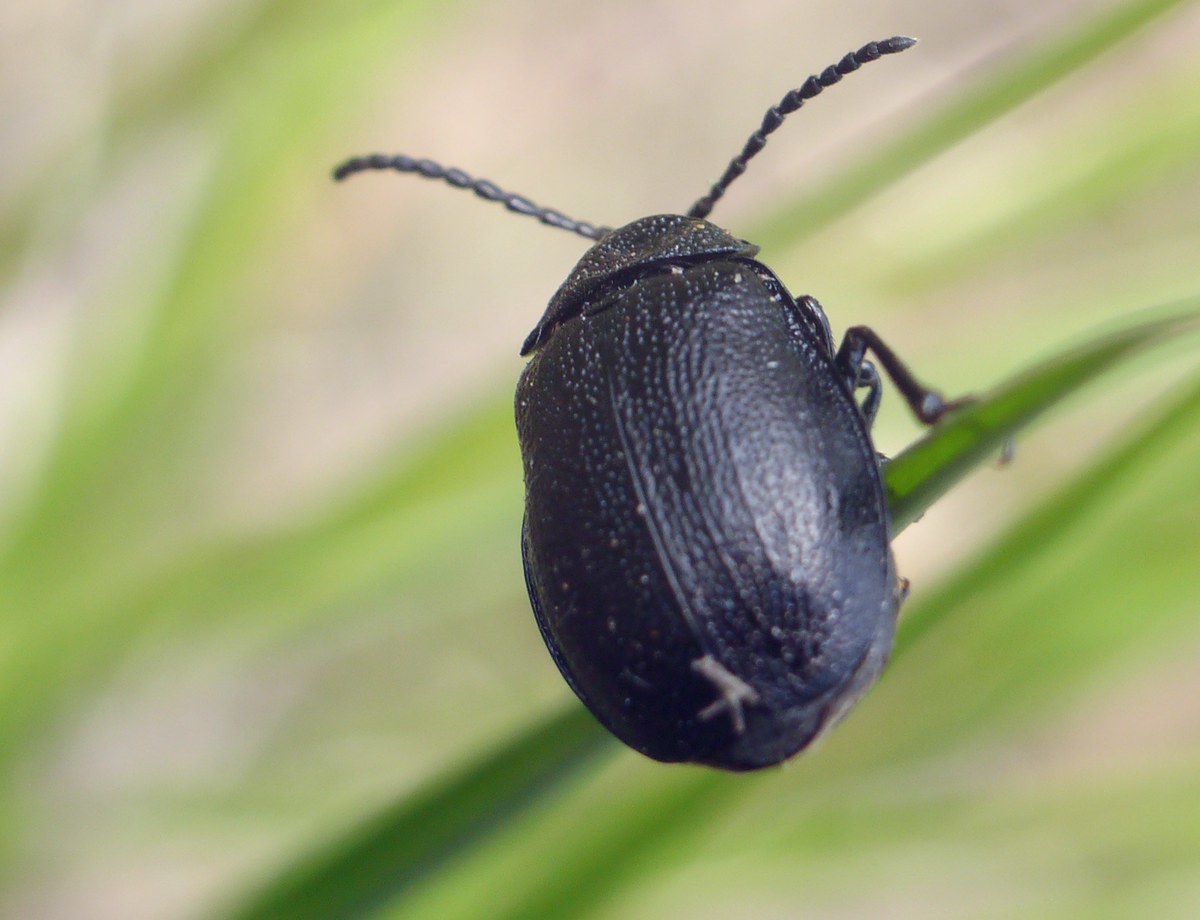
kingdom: Animalia
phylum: Arthropoda
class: Insecta
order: Coleoptera
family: Chrysomelidae
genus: Galeruca
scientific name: Galeruca tanaceti
